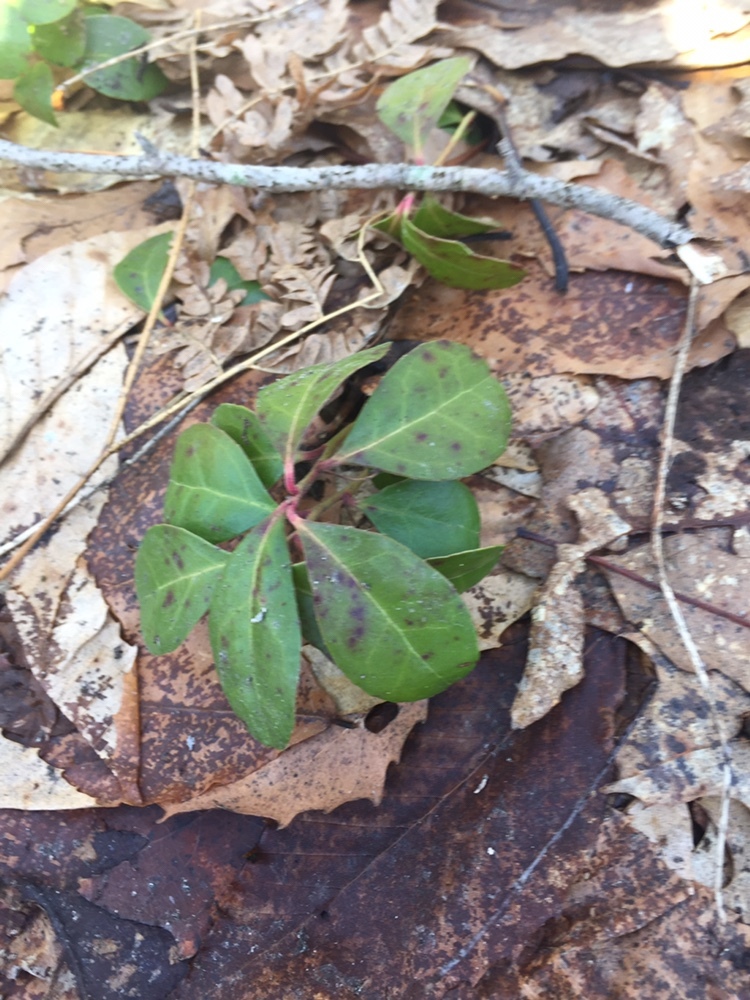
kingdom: Plantae
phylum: Tracheophyta
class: Magnoliopsida
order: Ericales
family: Ericaceae
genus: Gaultheria
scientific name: Gaultheria procumbens
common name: Checkerberry
